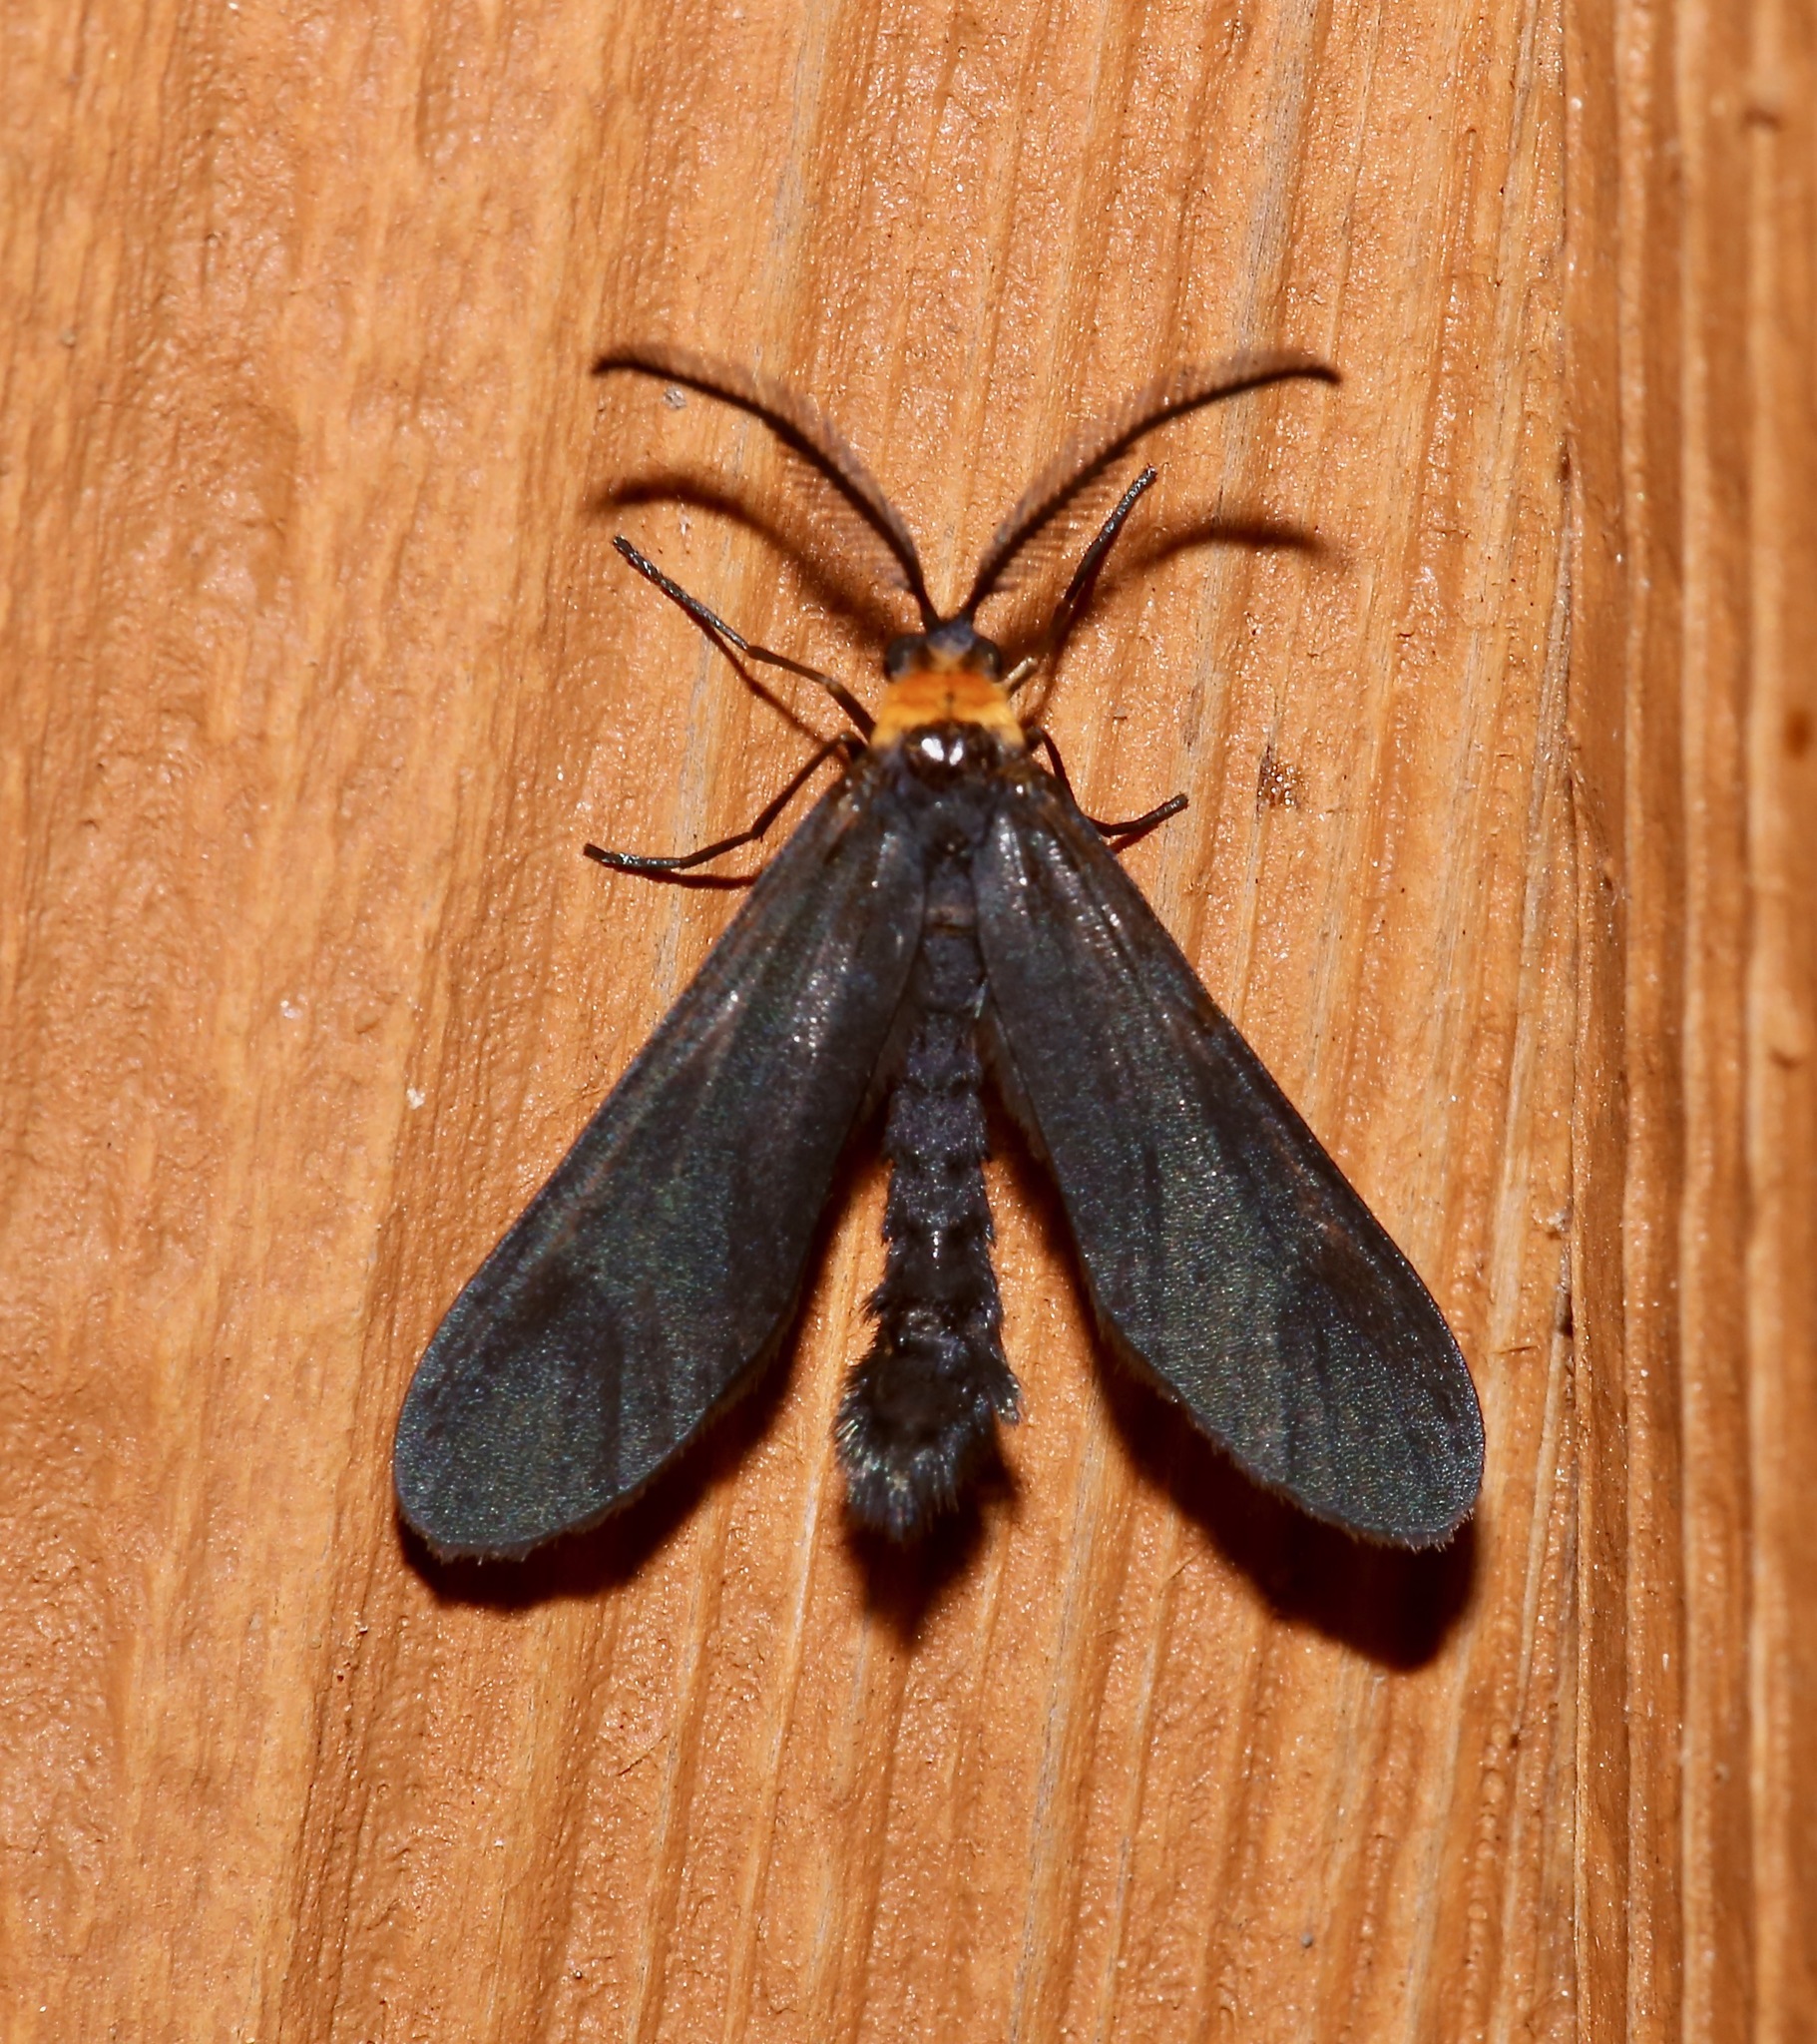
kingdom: Animalia
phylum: Arthropoda
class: Insecta
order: Lepidoptera
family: Zygaenidae
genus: Harrisina
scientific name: Harrisina americana
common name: Grapeleaf skeletonizer moth
